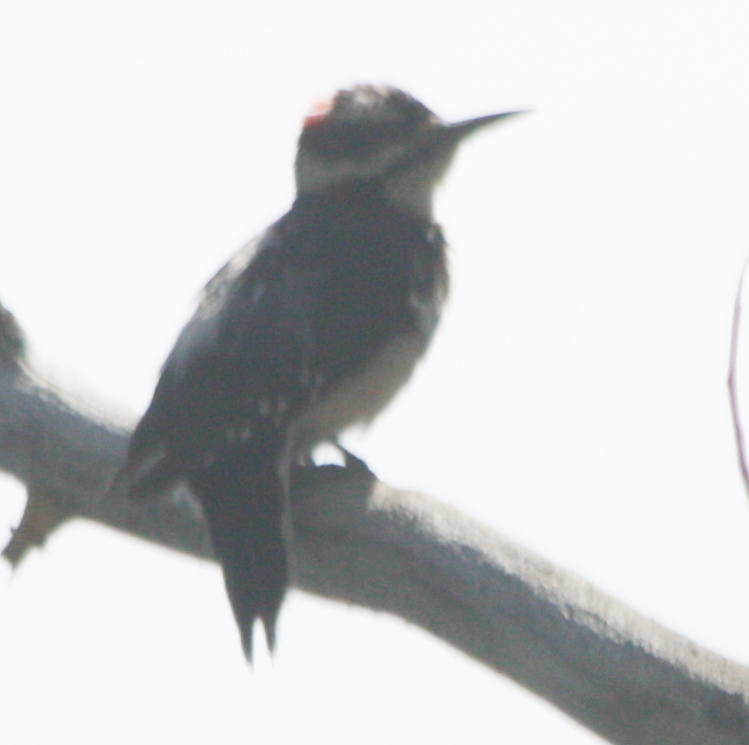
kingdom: Animalia
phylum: Chordata
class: Aves
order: Piciformes
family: Picidae
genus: Leuconotopicus
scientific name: Leuconotopicus villosus
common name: Hairy woodpecker
